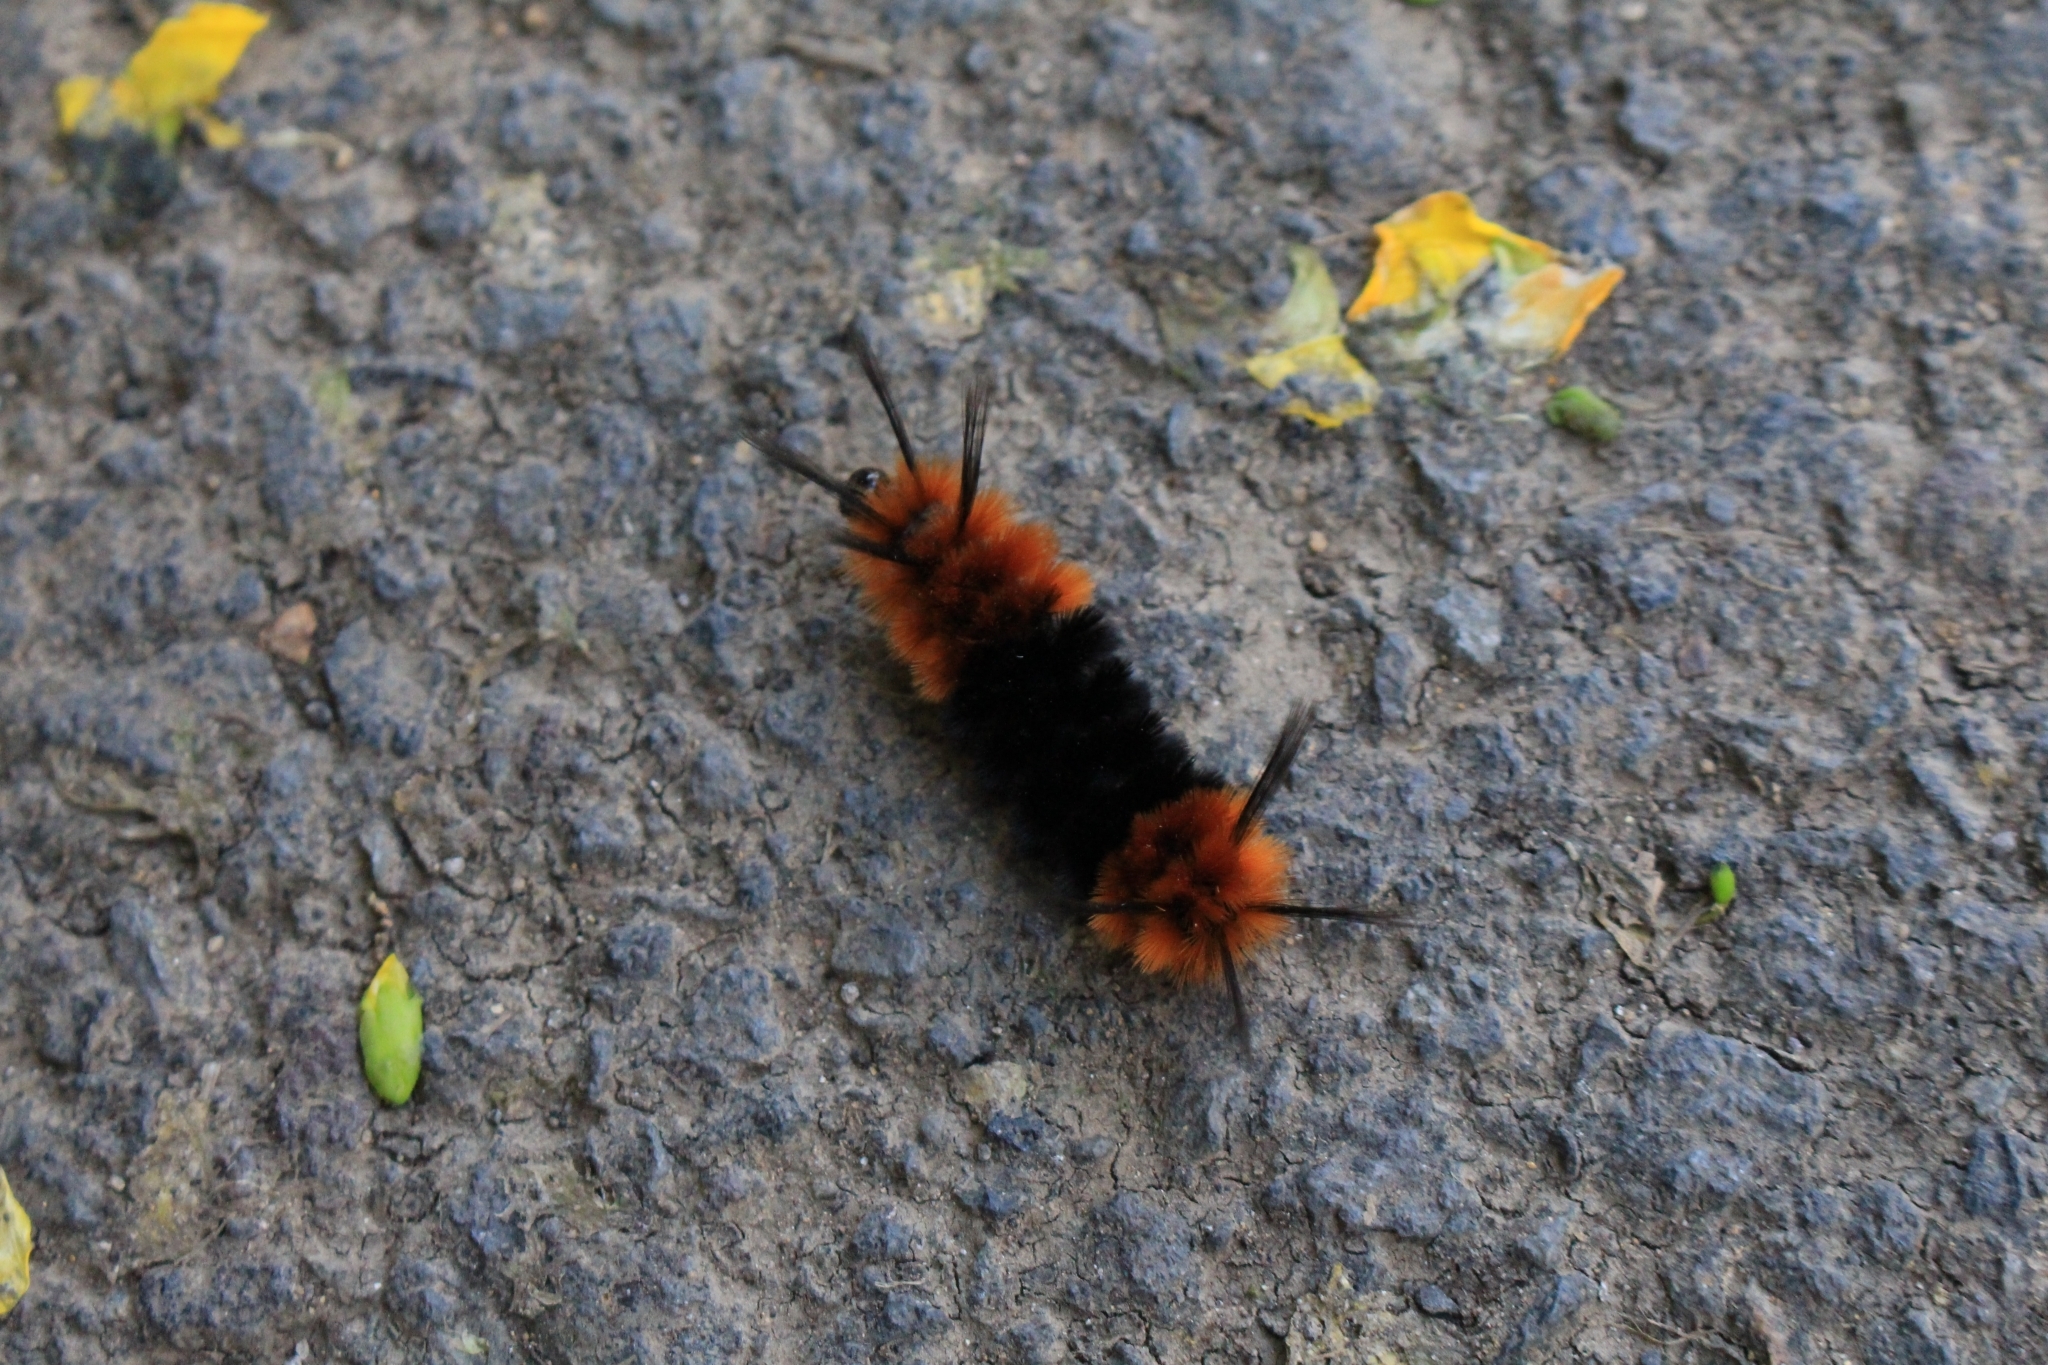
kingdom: Animalia
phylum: Arthropoda
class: Insecta
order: Lepidoptera
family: Erebidae
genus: Turuptiana
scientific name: Turuptiana
